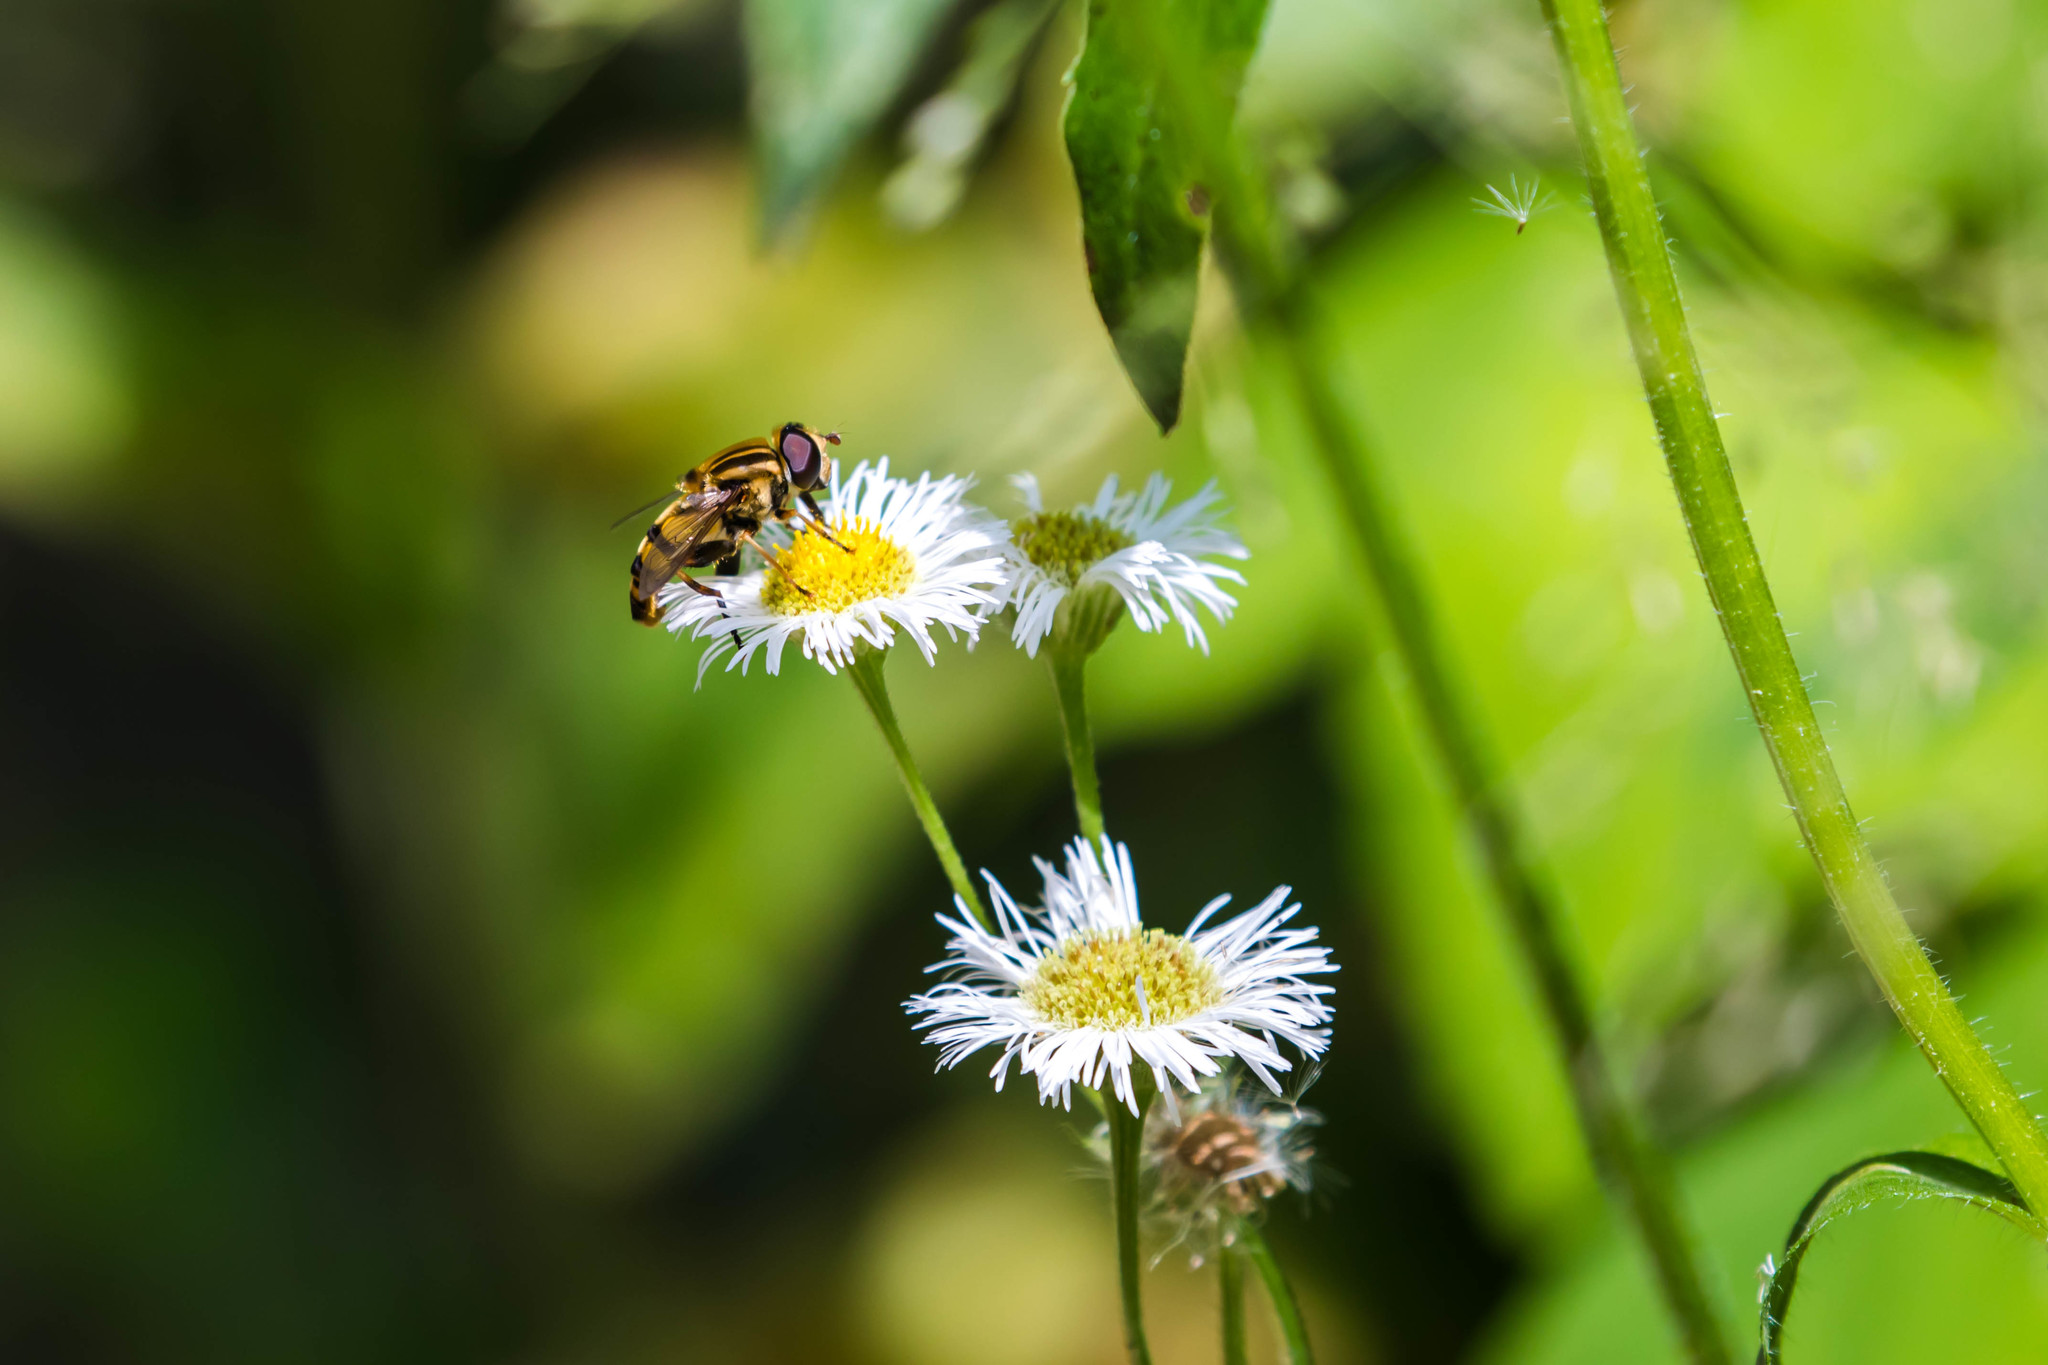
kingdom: Animalia
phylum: Arthropoda
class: Insecta
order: Diptera
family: Syrphidae
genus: Helophilus
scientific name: Helophilus fasciatus
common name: Narrow-headed marsh fly
